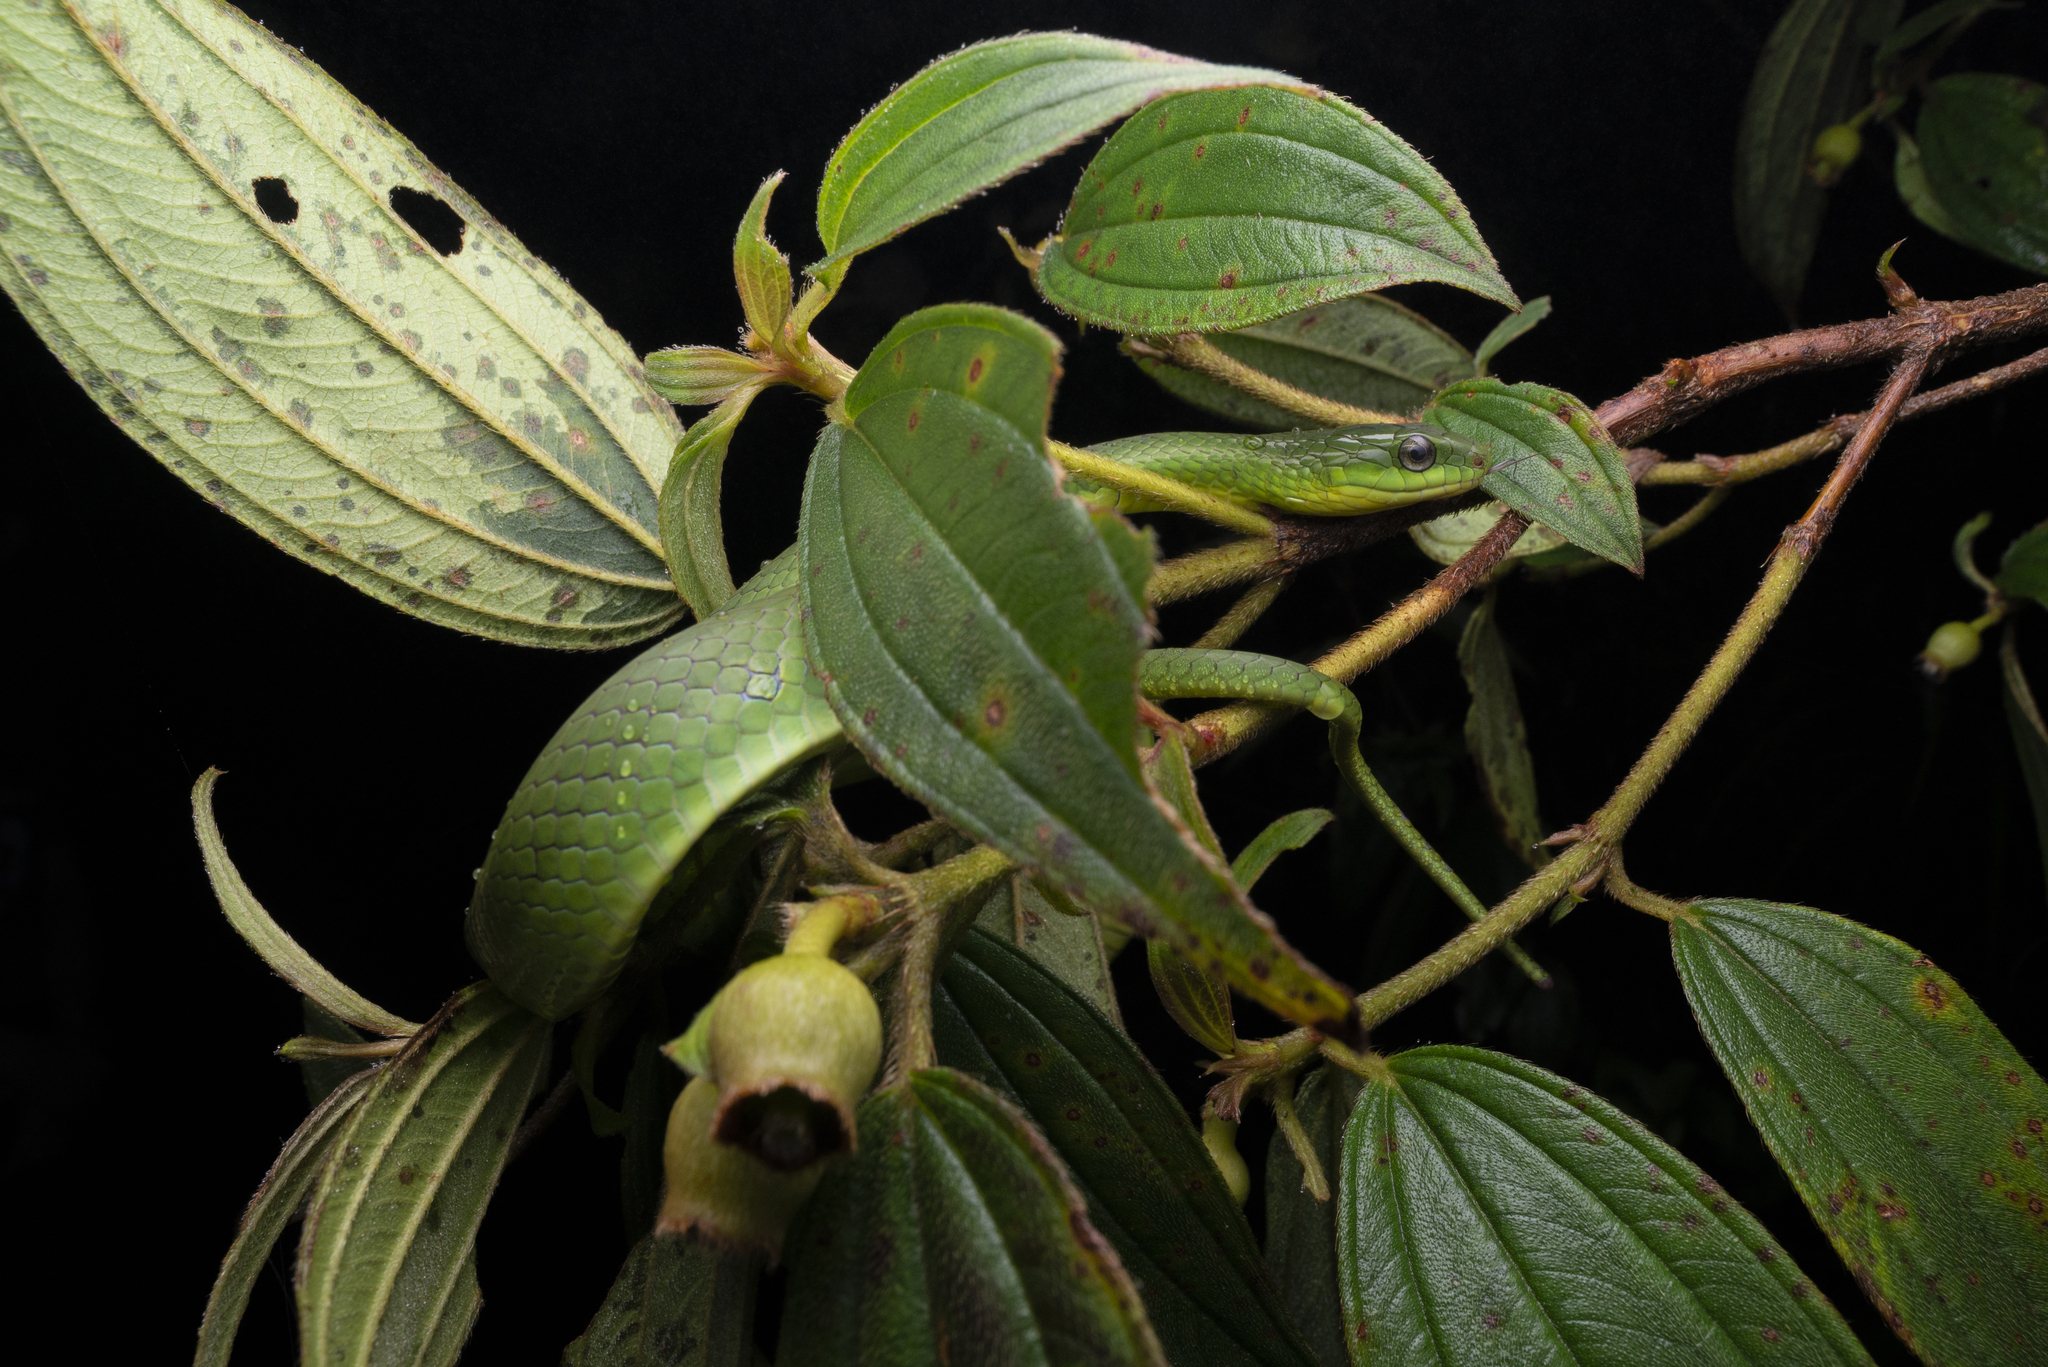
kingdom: Animalia
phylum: Chordata
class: Squamata
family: Colubridae
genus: Ptyas
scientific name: Ptyas major
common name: Chinese green snake
